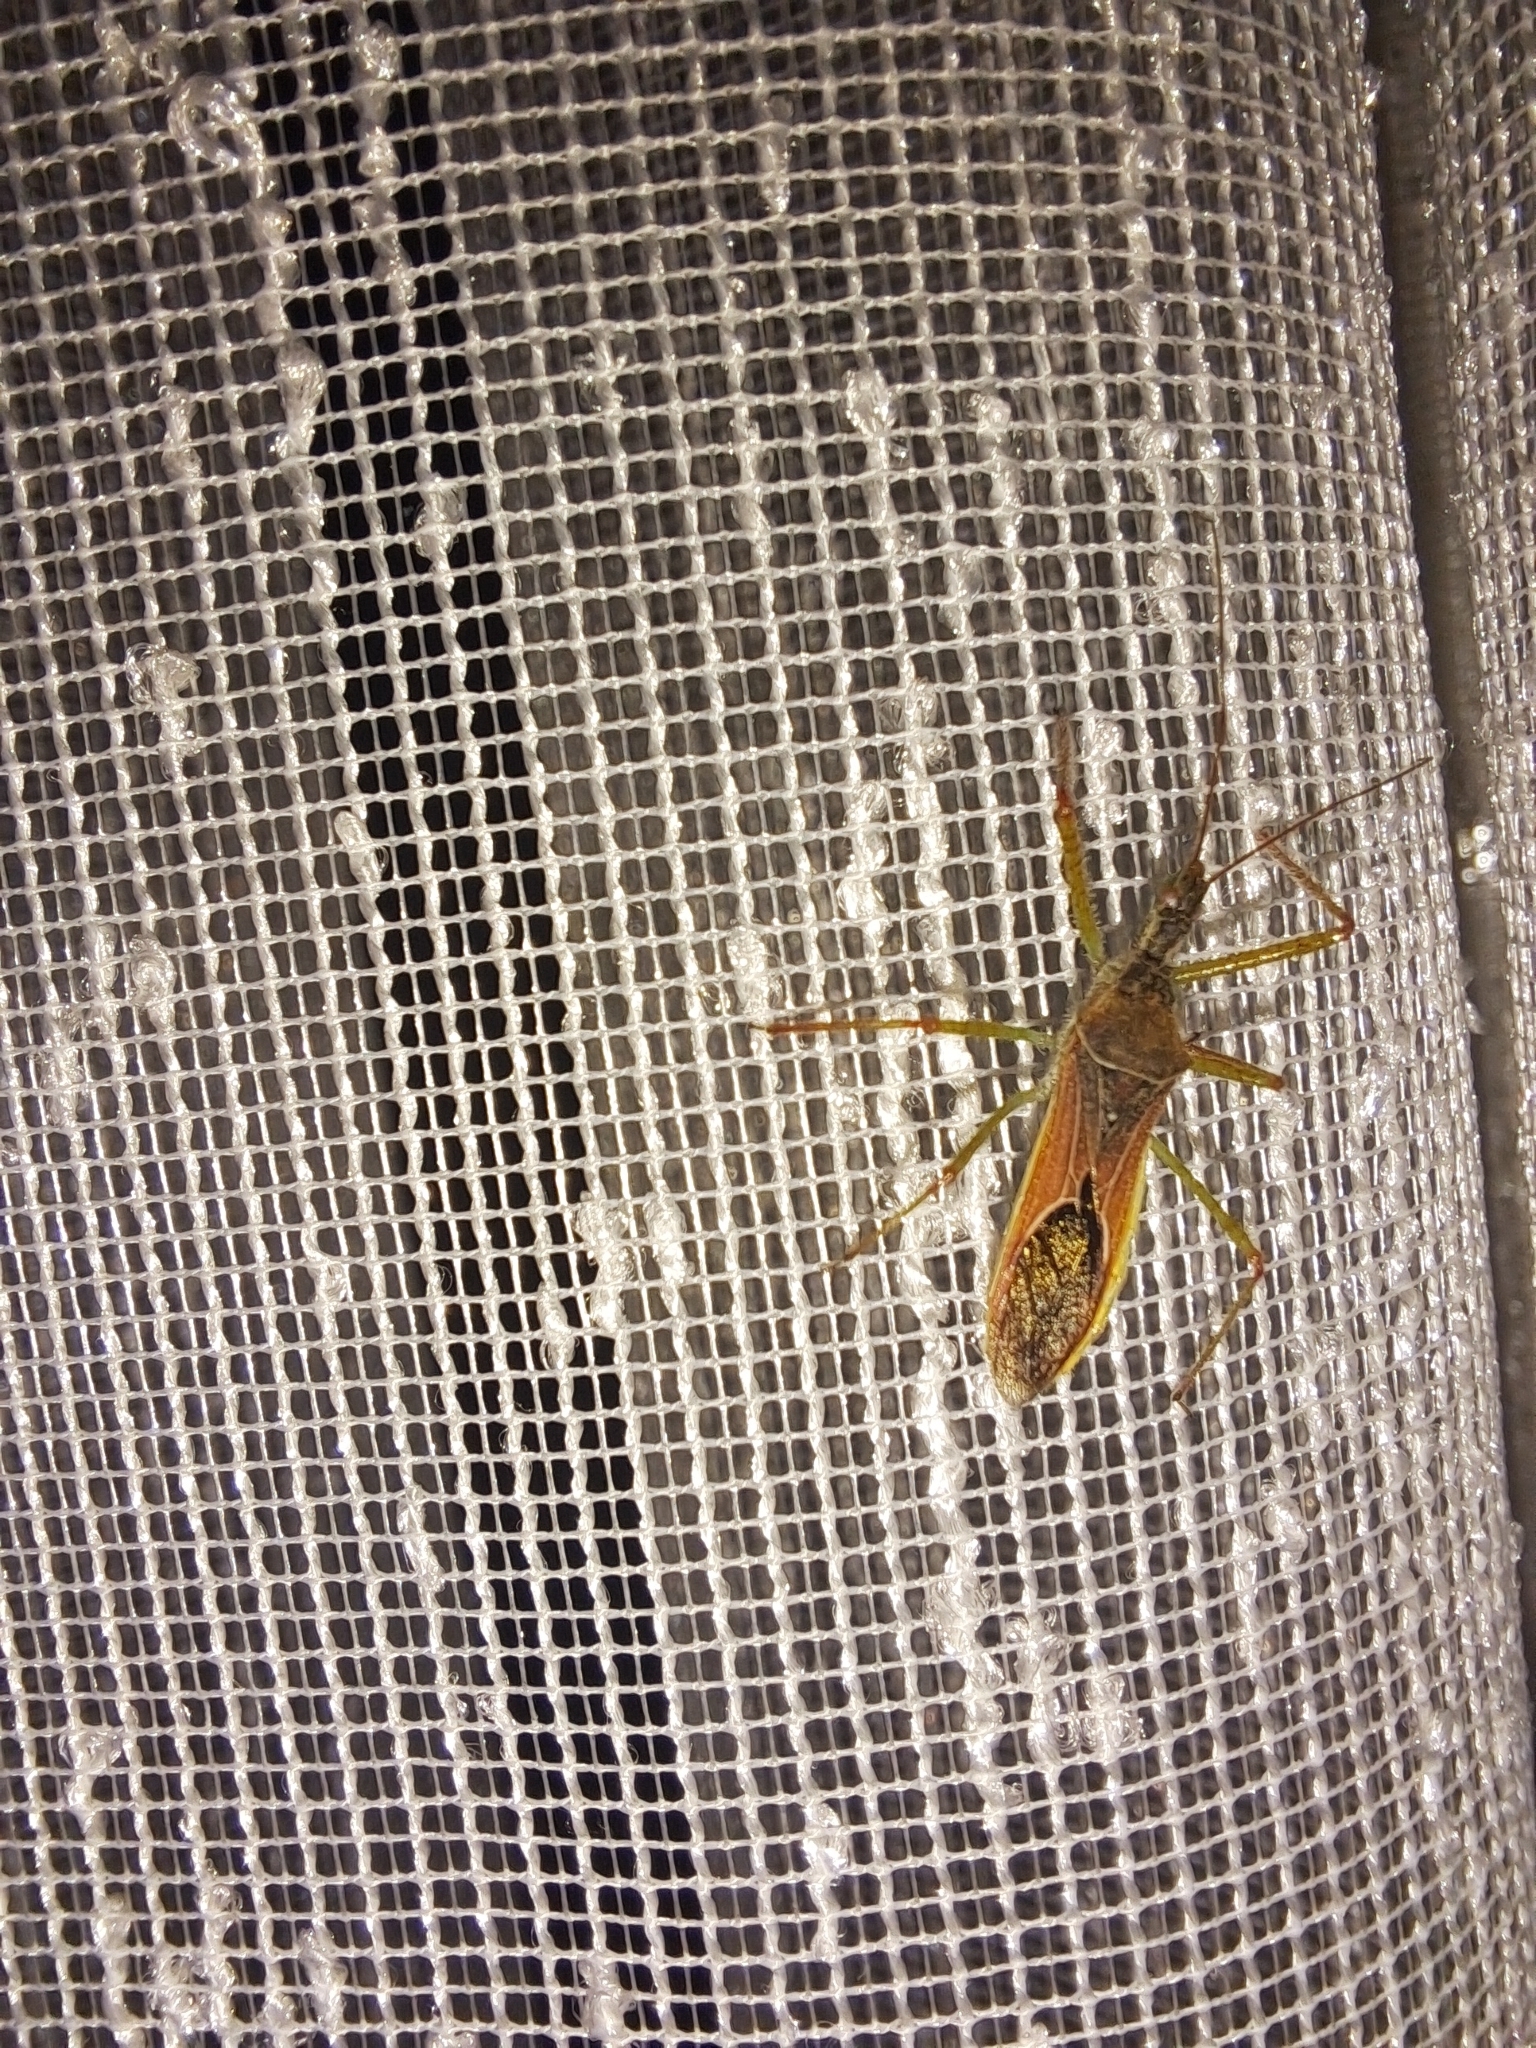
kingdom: Animalia
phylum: Arthropoda
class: Insecta
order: Hemiptera
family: Reduviidae
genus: Zelus
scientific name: Zelus renardii
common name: Assassin bug
